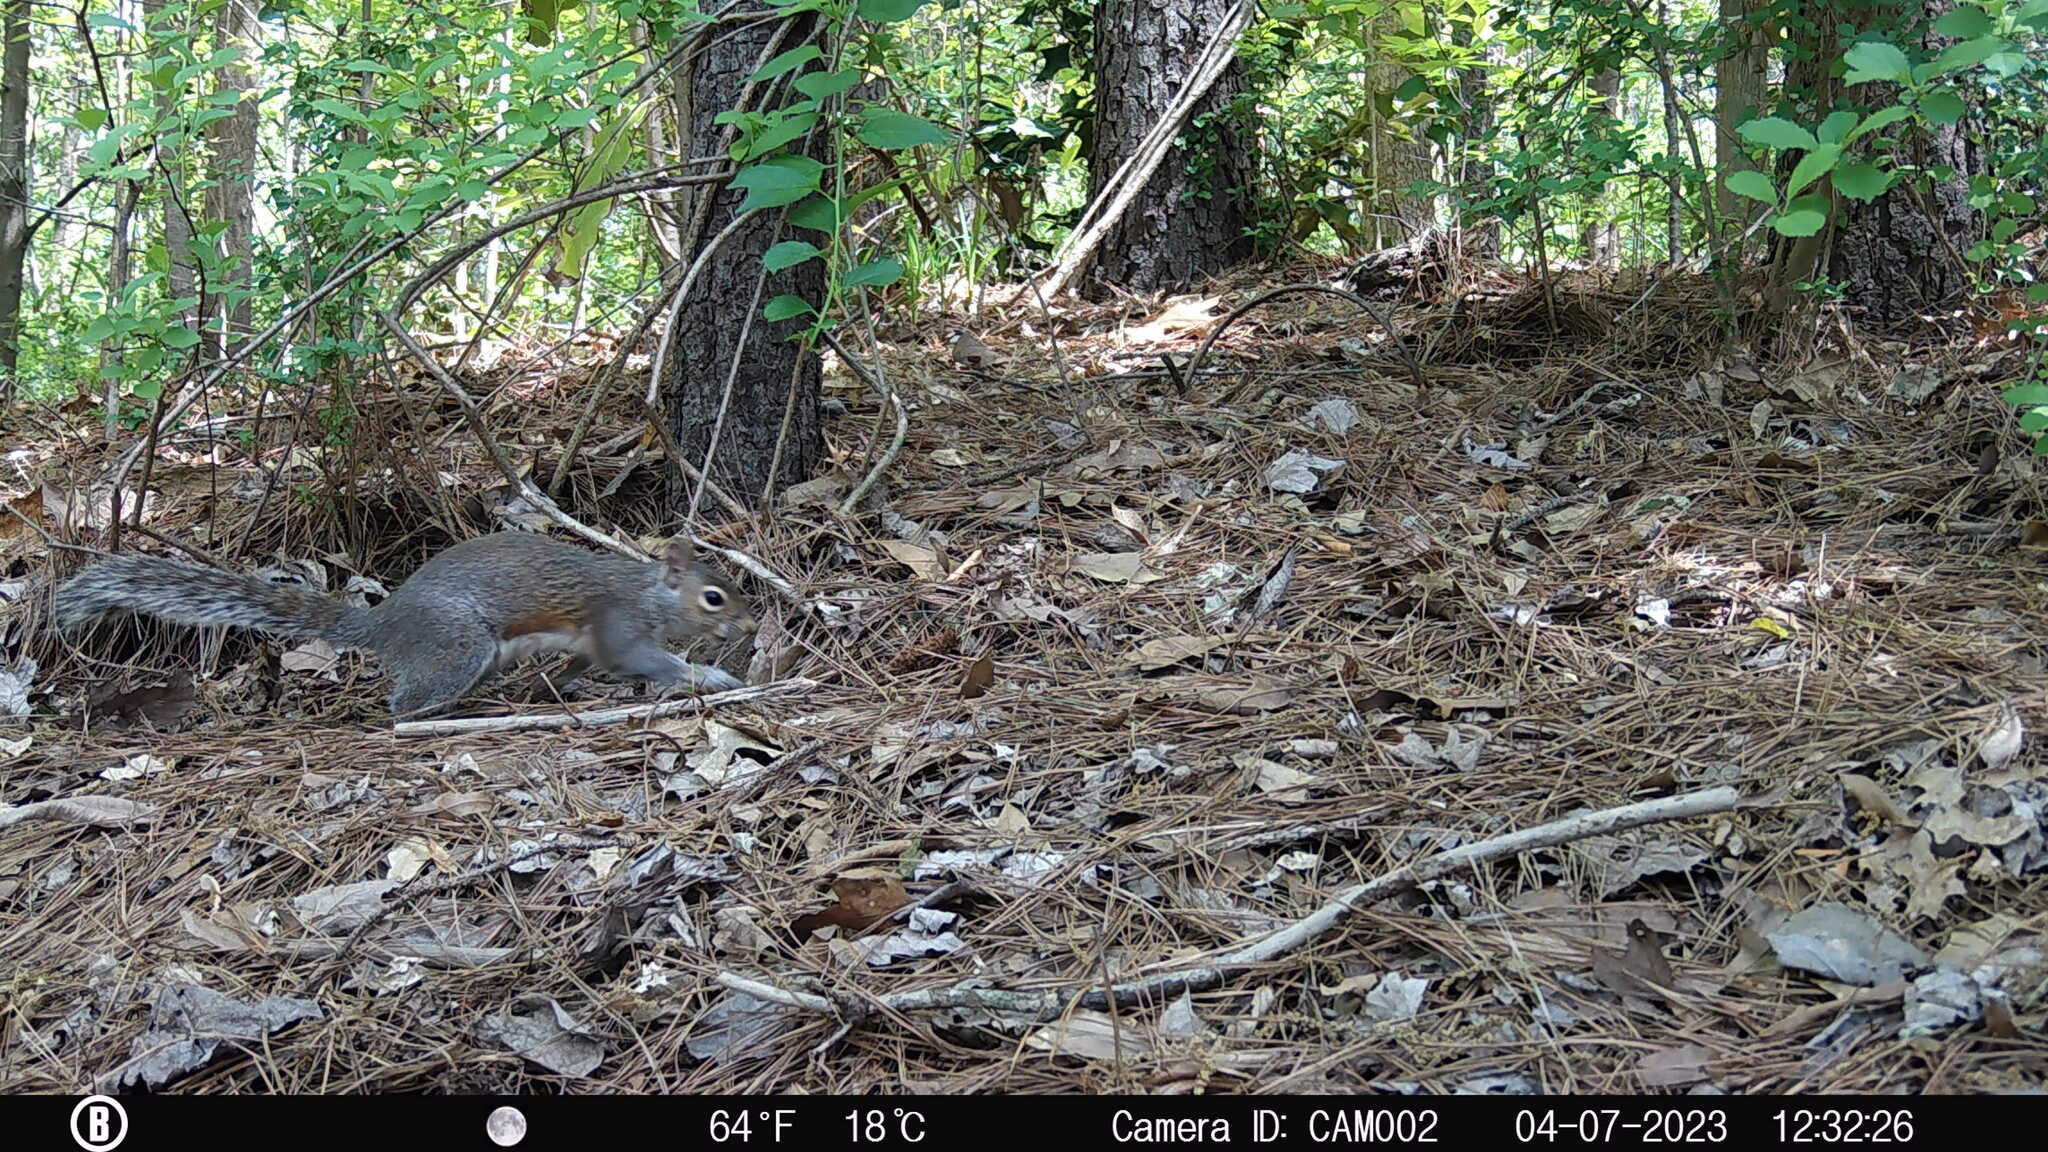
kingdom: Animalia
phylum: Chordata
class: Mammalia
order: Rodentia
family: Sciuridae
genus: Sciurus
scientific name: Sciurus carolinensis
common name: Eastern gray squirrel
